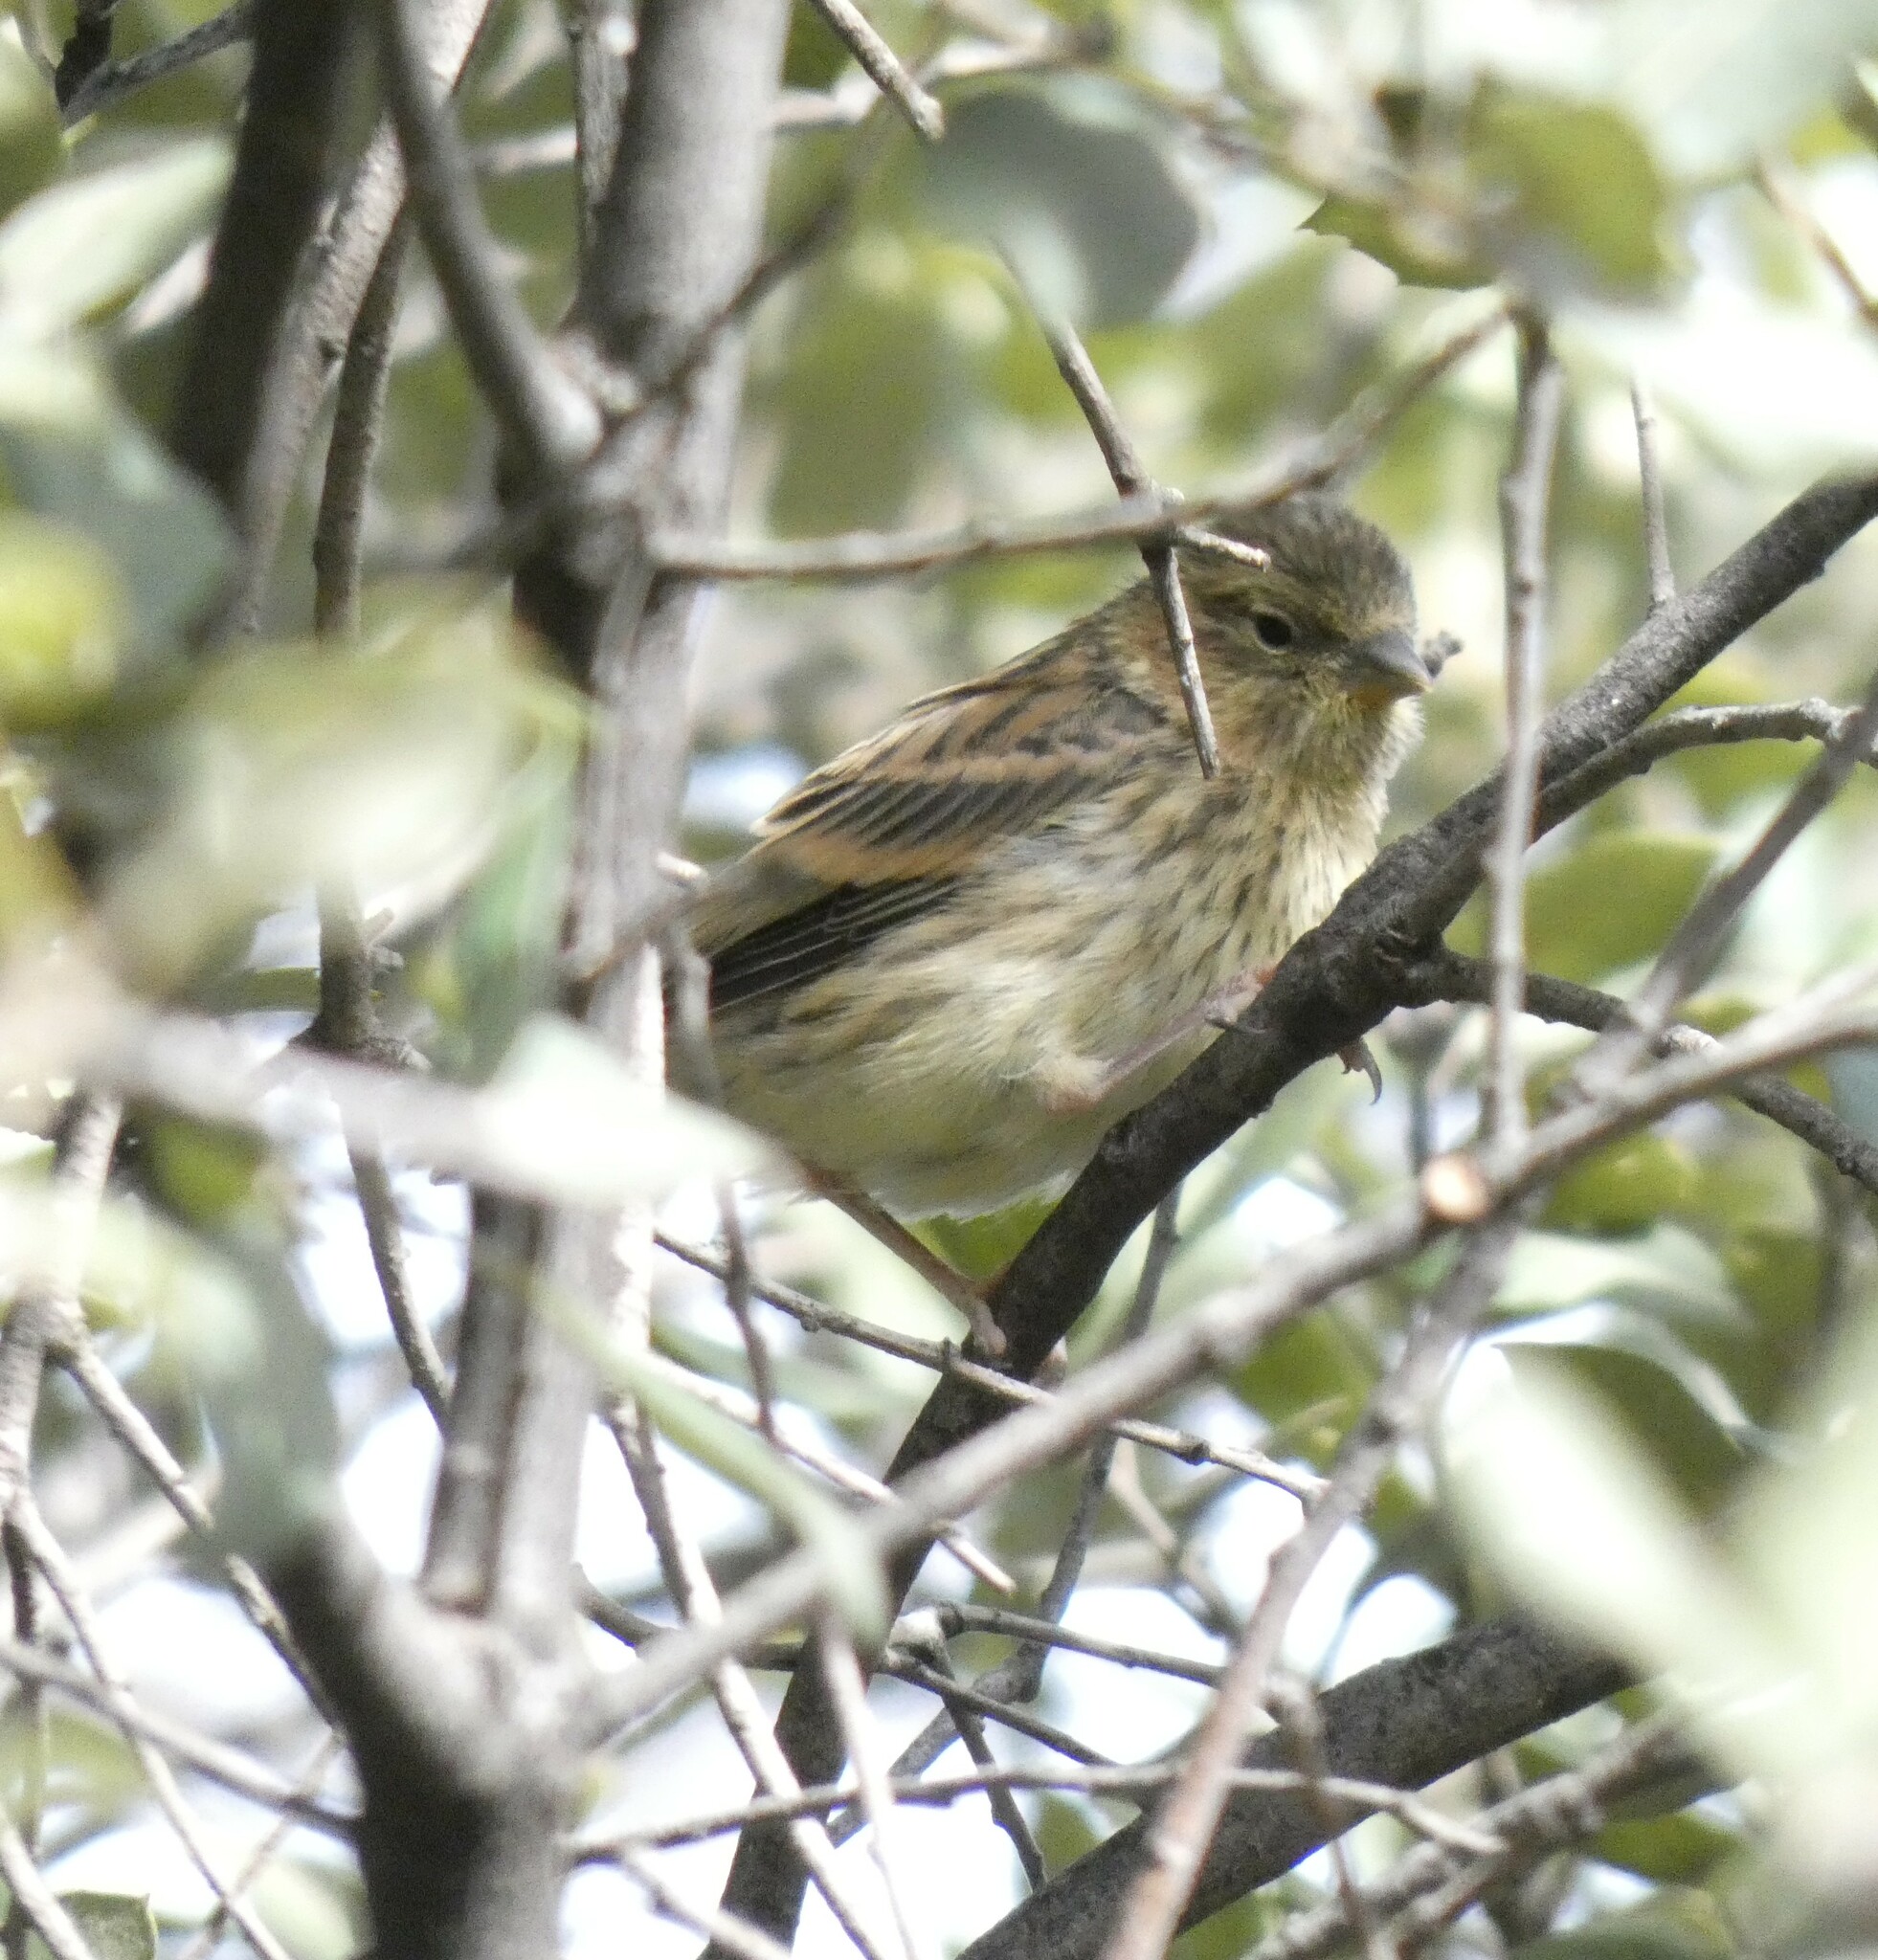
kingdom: Animalia
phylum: Chordata
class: Aves
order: Passeriformes
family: Fringillidae
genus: Serinus
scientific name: Serinus serinus
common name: European serin
